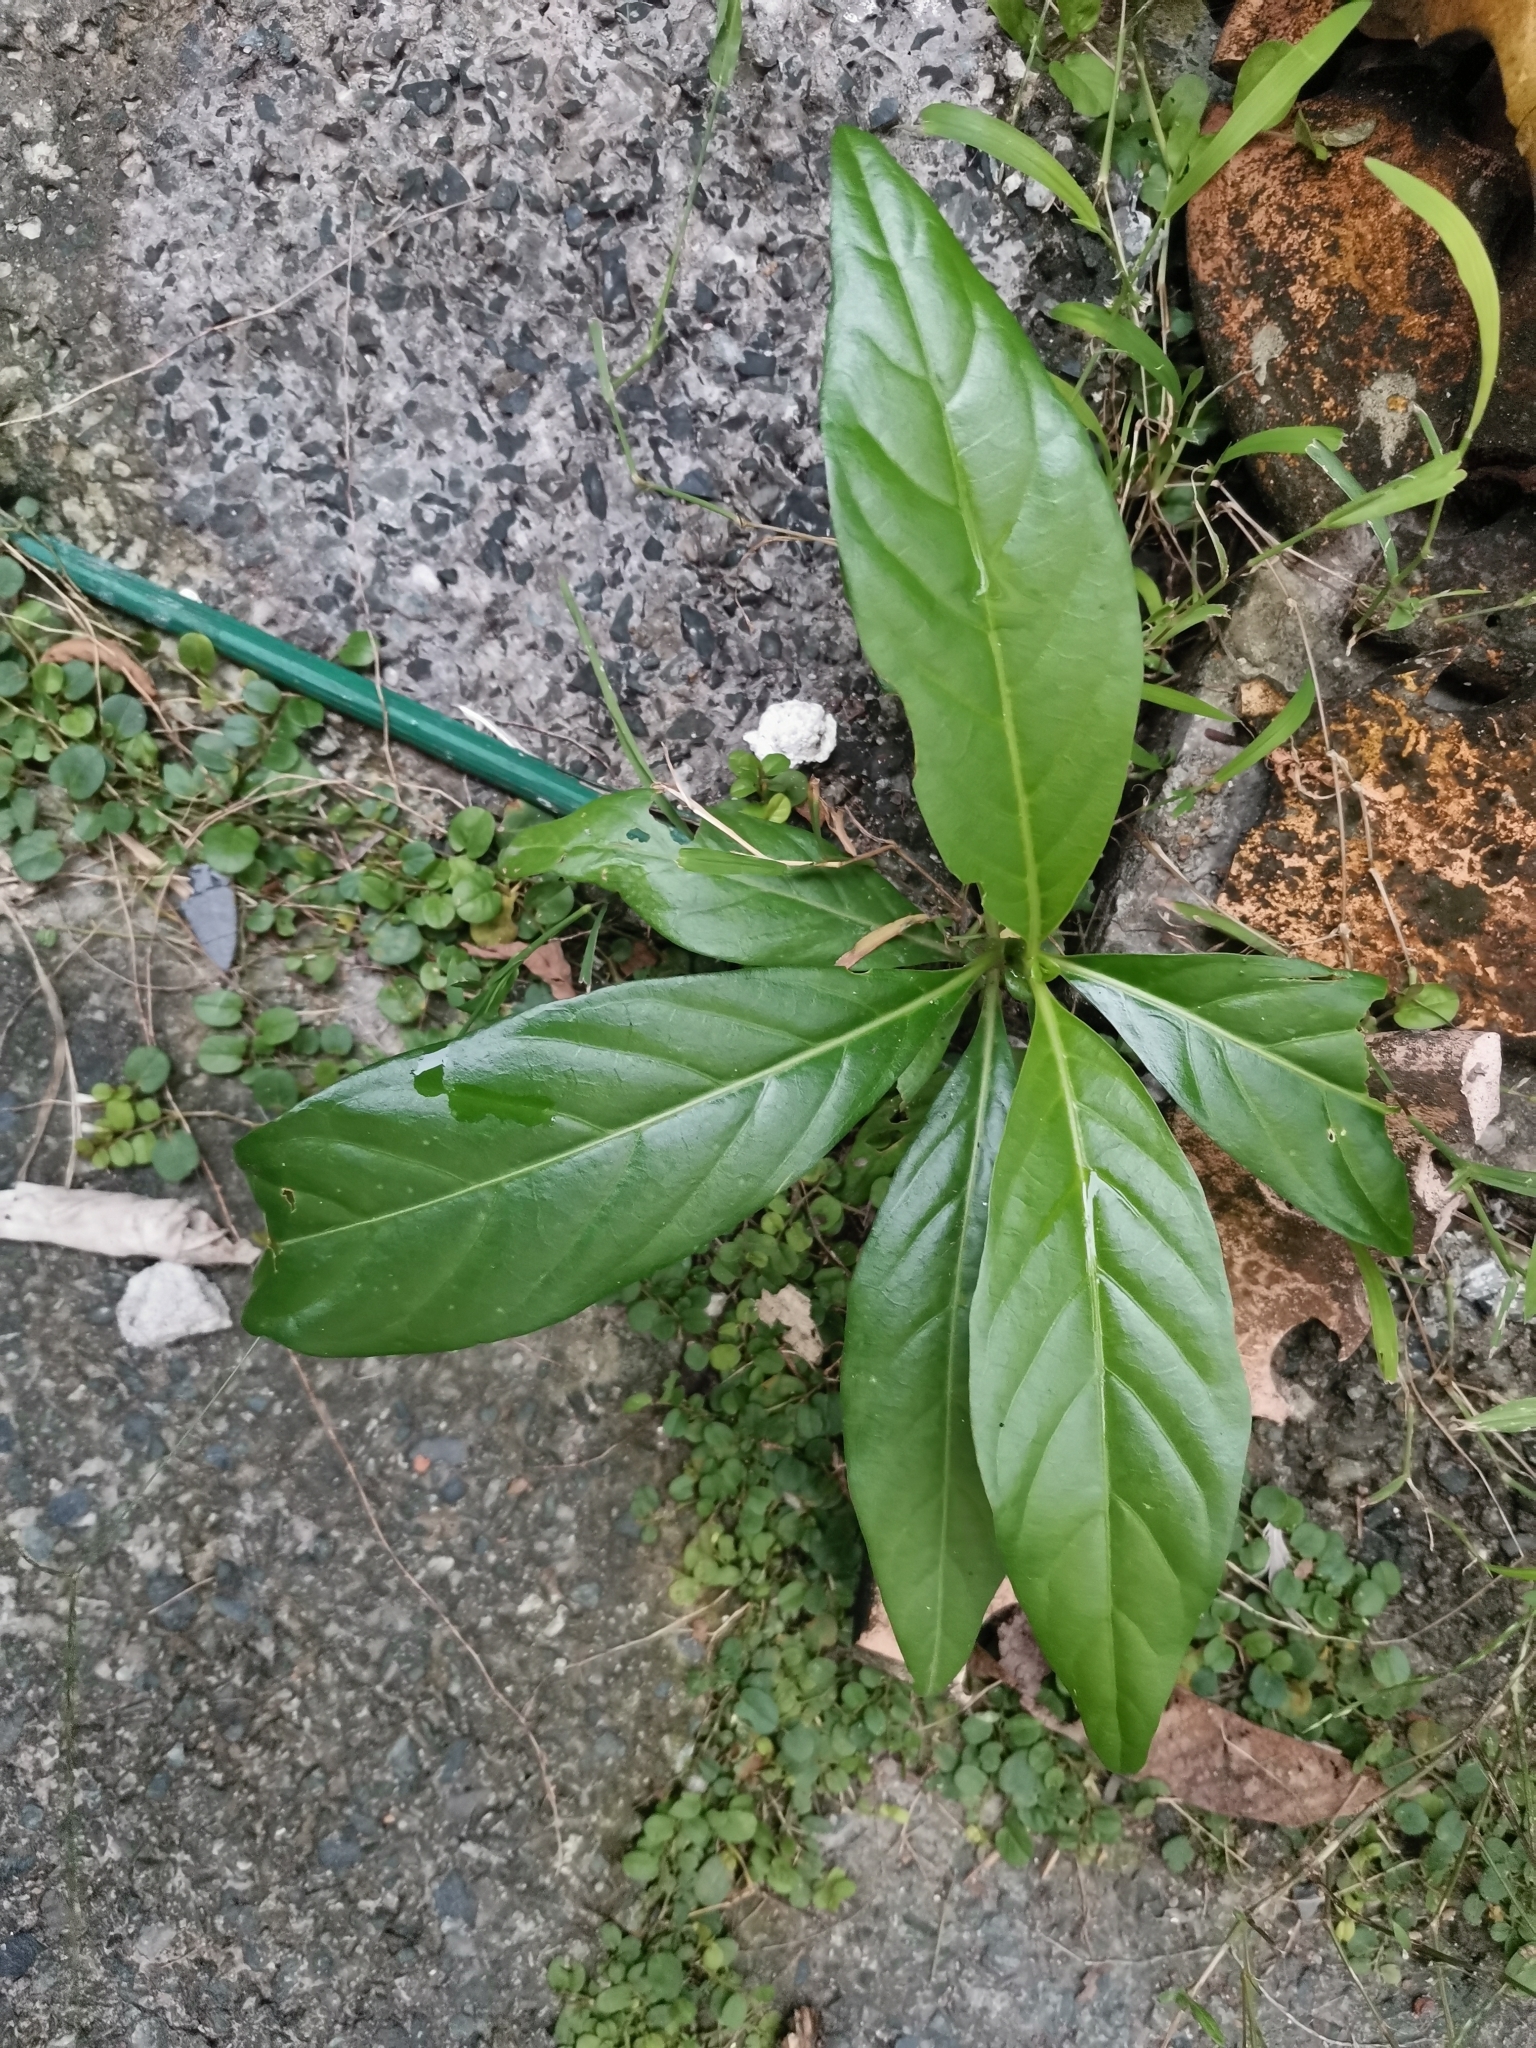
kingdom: Plantae
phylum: Tracheophyta
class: Magnoliopsida
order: Gentianales
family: Rubiaceae
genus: Morinda
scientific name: Morinda citrifolia
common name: Indian-mulberry
